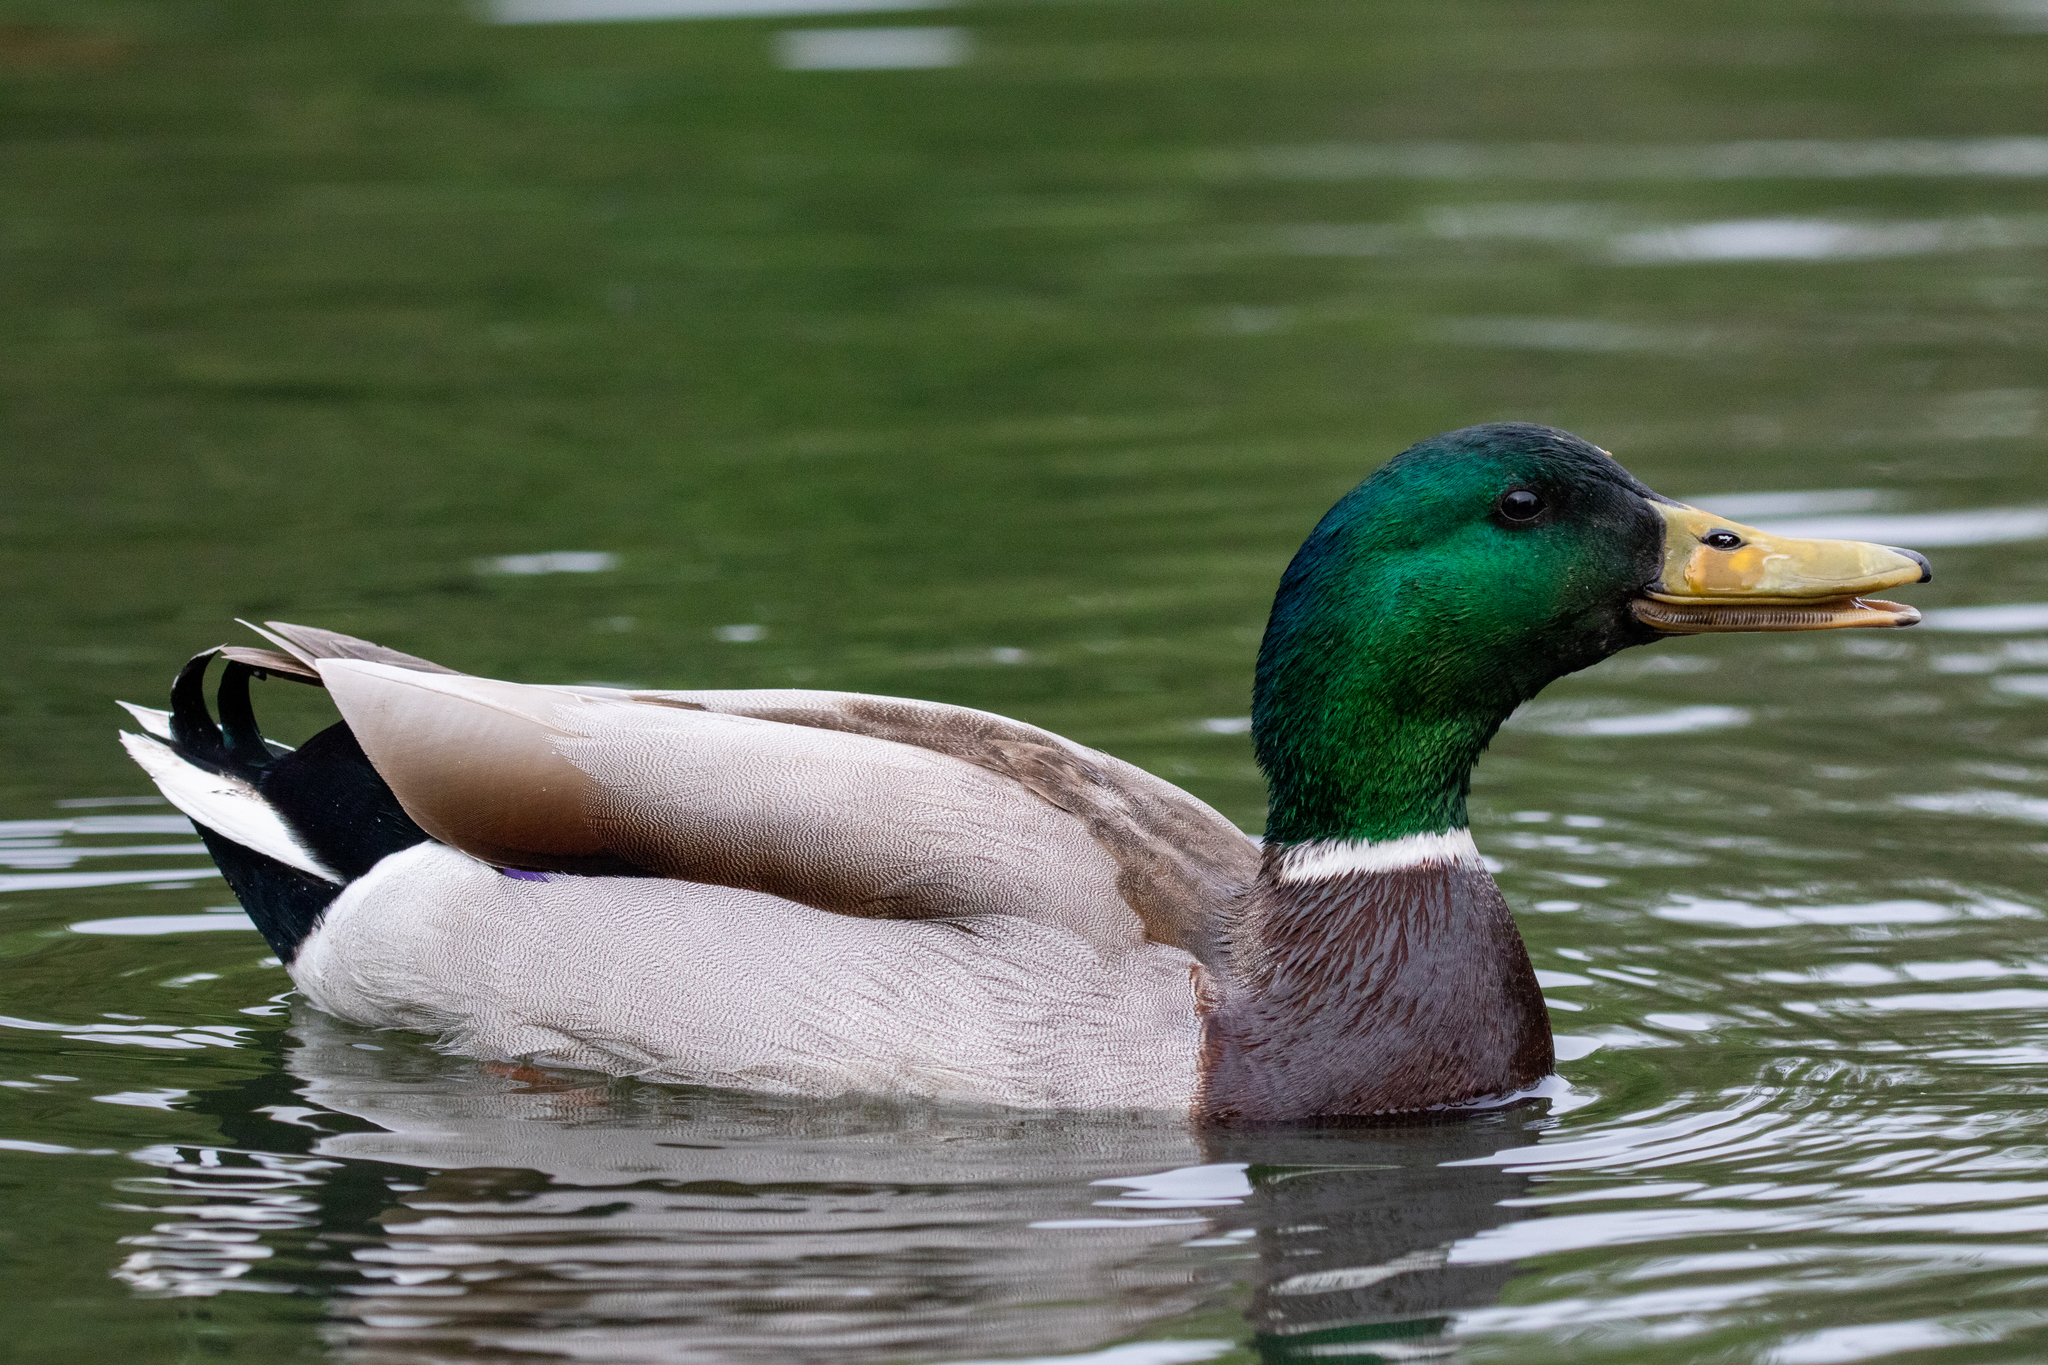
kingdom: Animalia
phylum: Chordata
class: Aves
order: Anseriformes
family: Anatidae
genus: Anas
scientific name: Anas platyrhynchos
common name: Mallard
